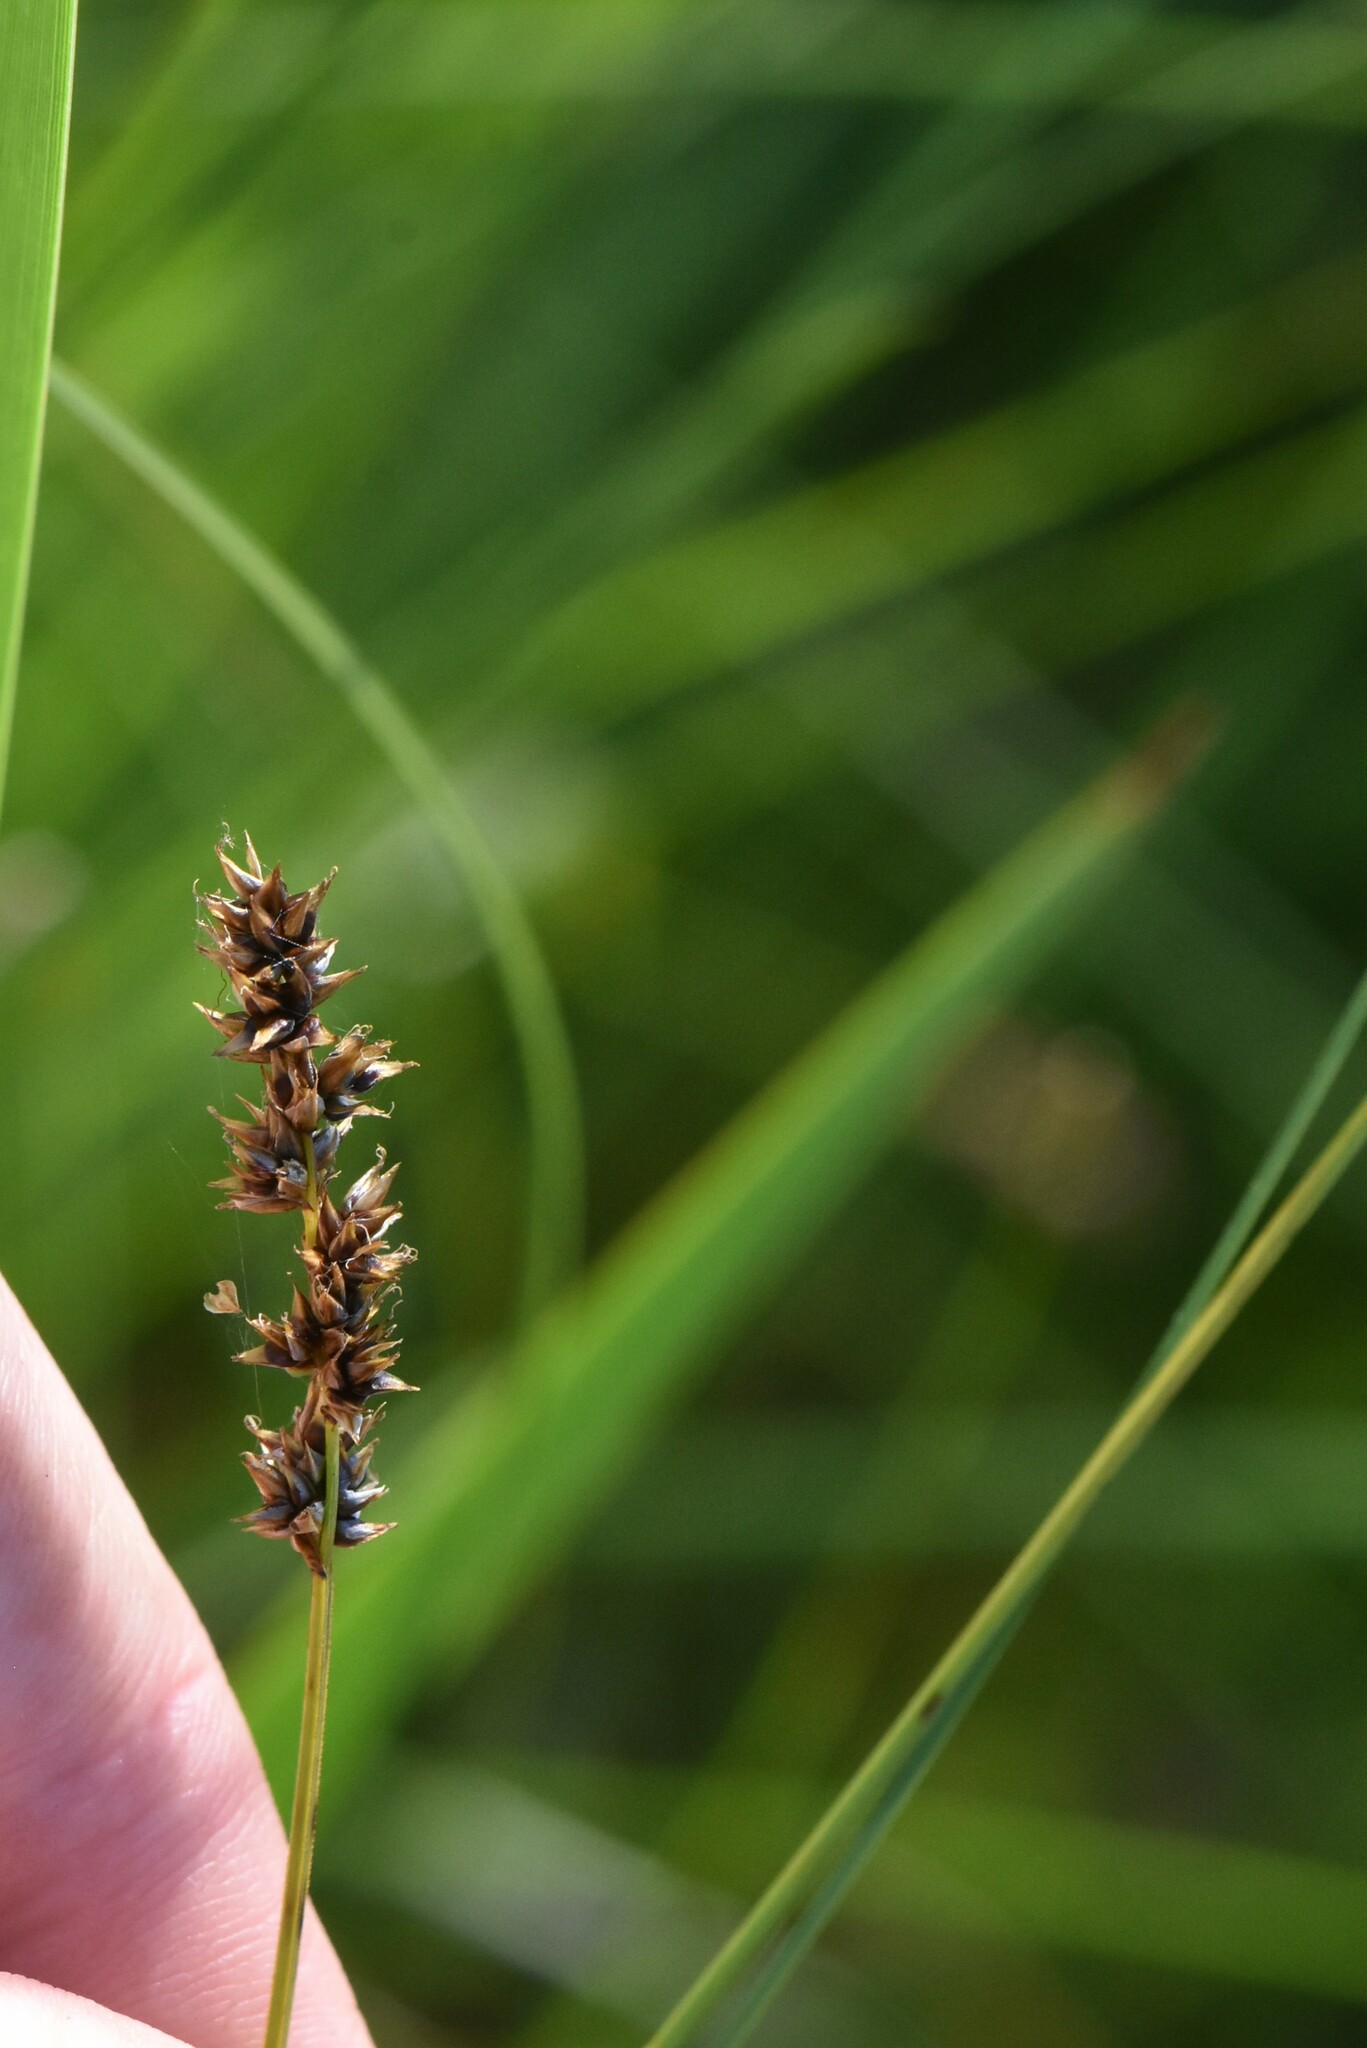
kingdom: Plantae
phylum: Tracheophyta
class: Liliopsida
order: Poales
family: Cyperaceae
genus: Carex
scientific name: Carex diandra
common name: Lesser tussock-sedge
